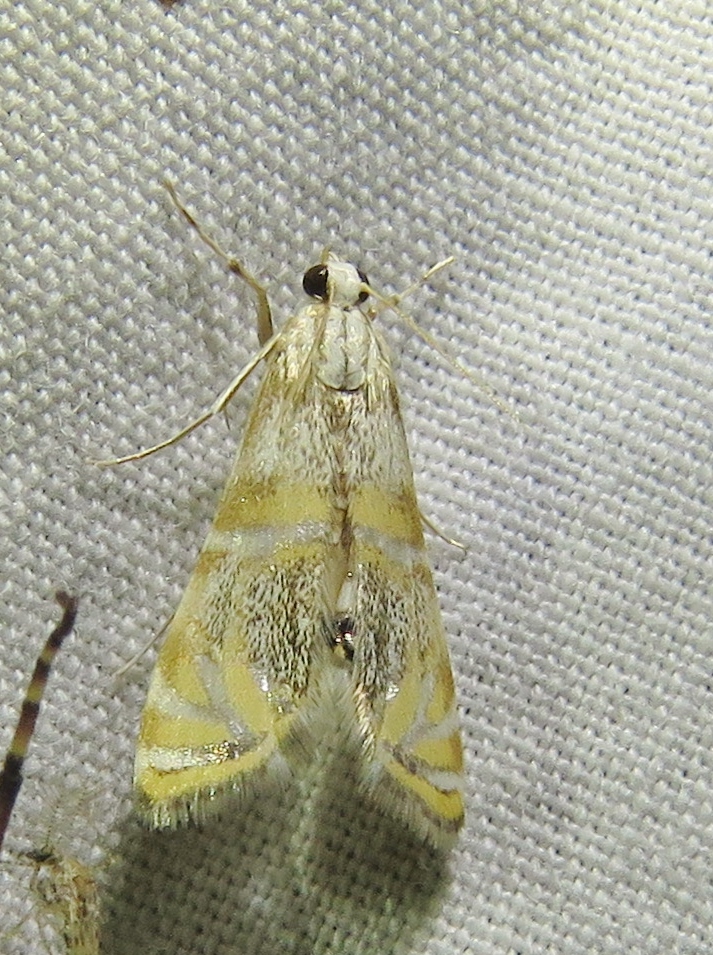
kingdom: Animalia
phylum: Arthropoda
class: Insecta
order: Lepidoptera
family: Crambidae
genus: Petrophila
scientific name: Petrophila bifascialis
